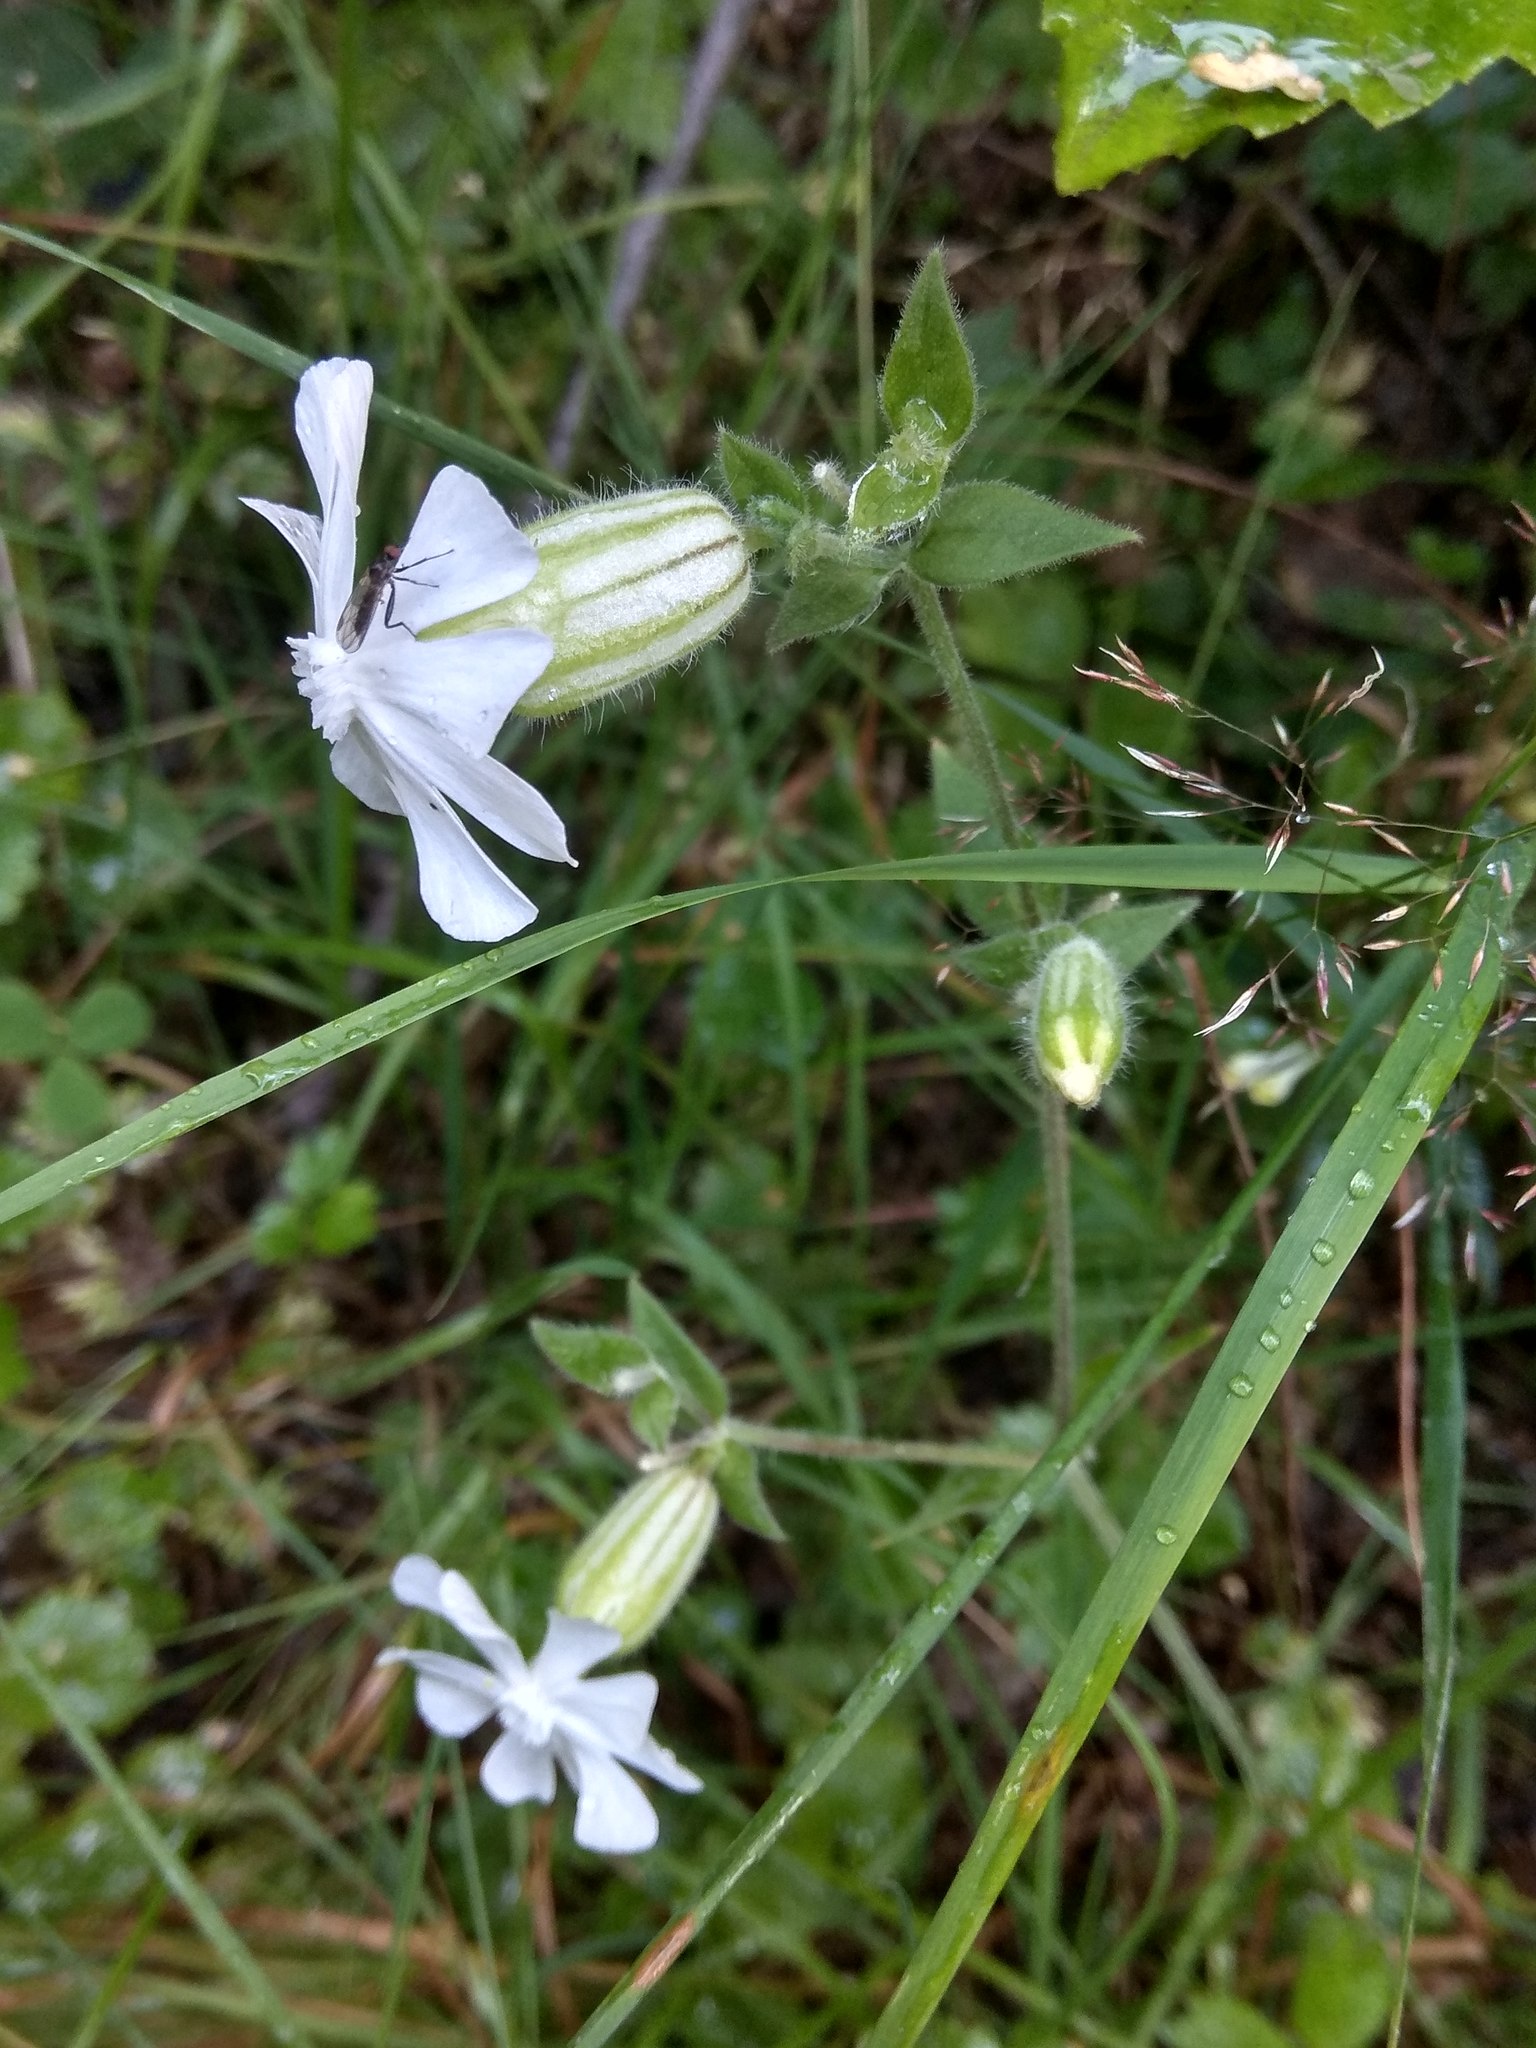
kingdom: Plantae
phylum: Tracheophyta
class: Magnoliopsida
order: Caryophyllales
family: Caryophyllaceae
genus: Silene
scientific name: Silene latifolia
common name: White campion
